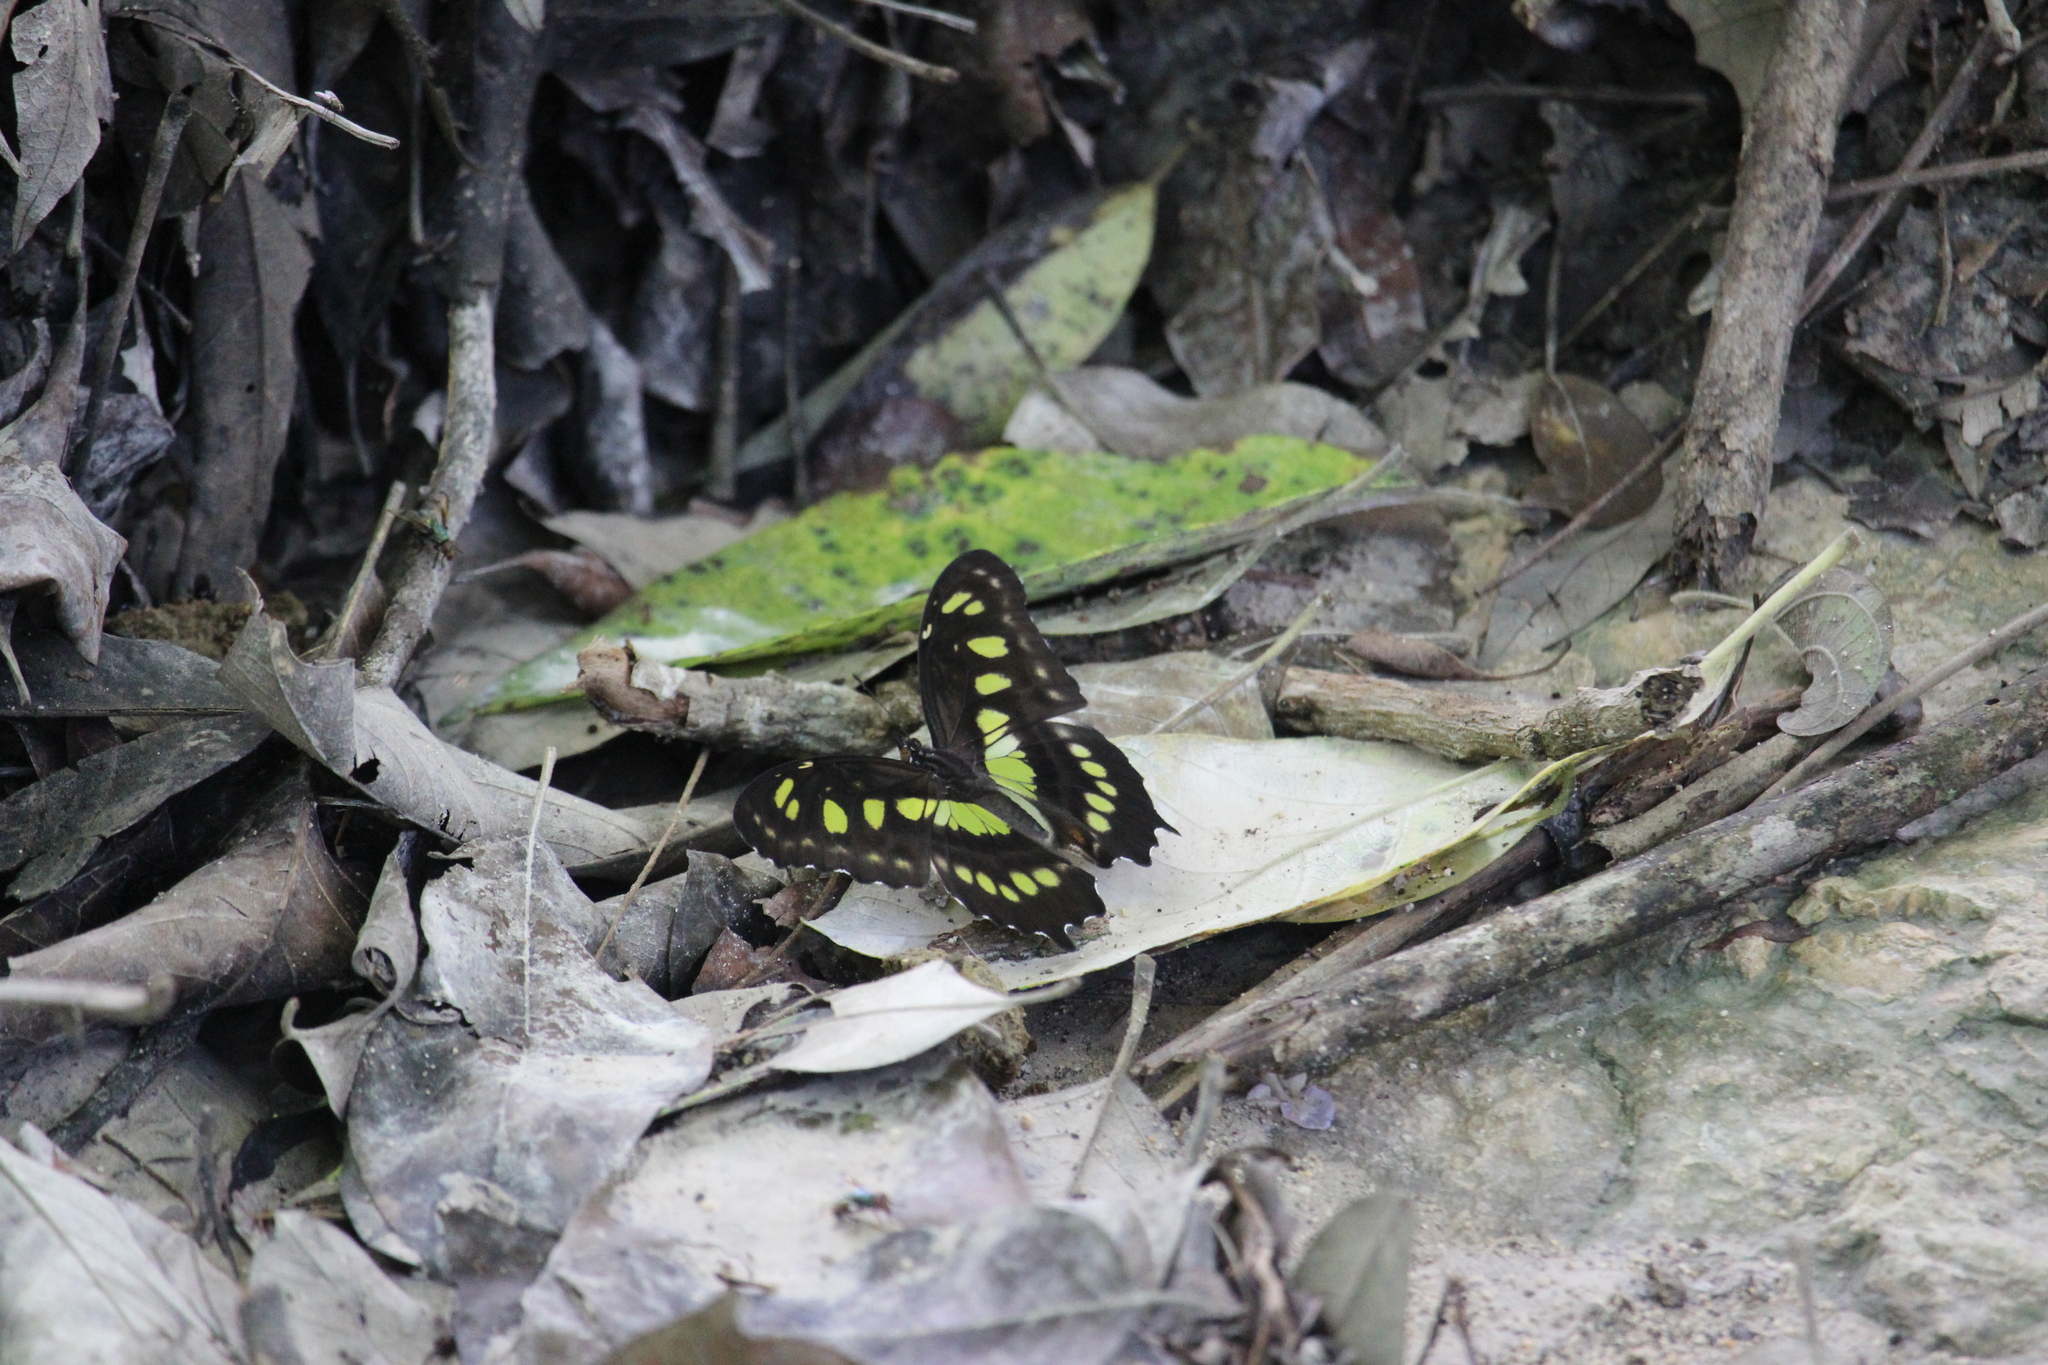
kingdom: Animalia
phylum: Arthropoda
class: Insecta
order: Lepidoptera
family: Nymphalidae
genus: Siproeta
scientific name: Siproeta stelenes
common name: Malachite
